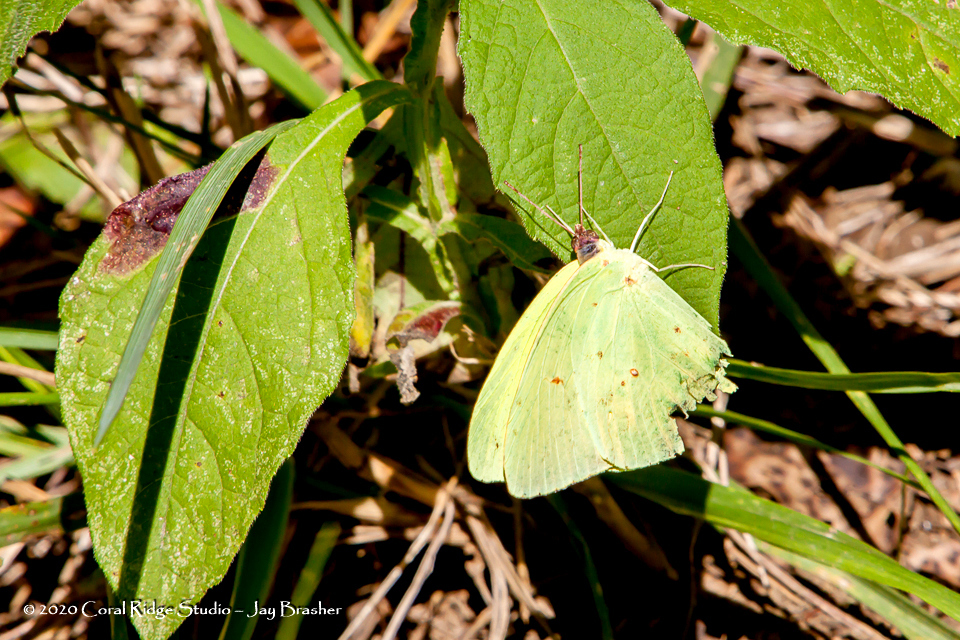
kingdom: Animalia
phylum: Arthropoda
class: Insecta
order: Lepidoptera
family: Pieridae
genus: Phoebis
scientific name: Phoebis sennae
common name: Cloudless sulphur
